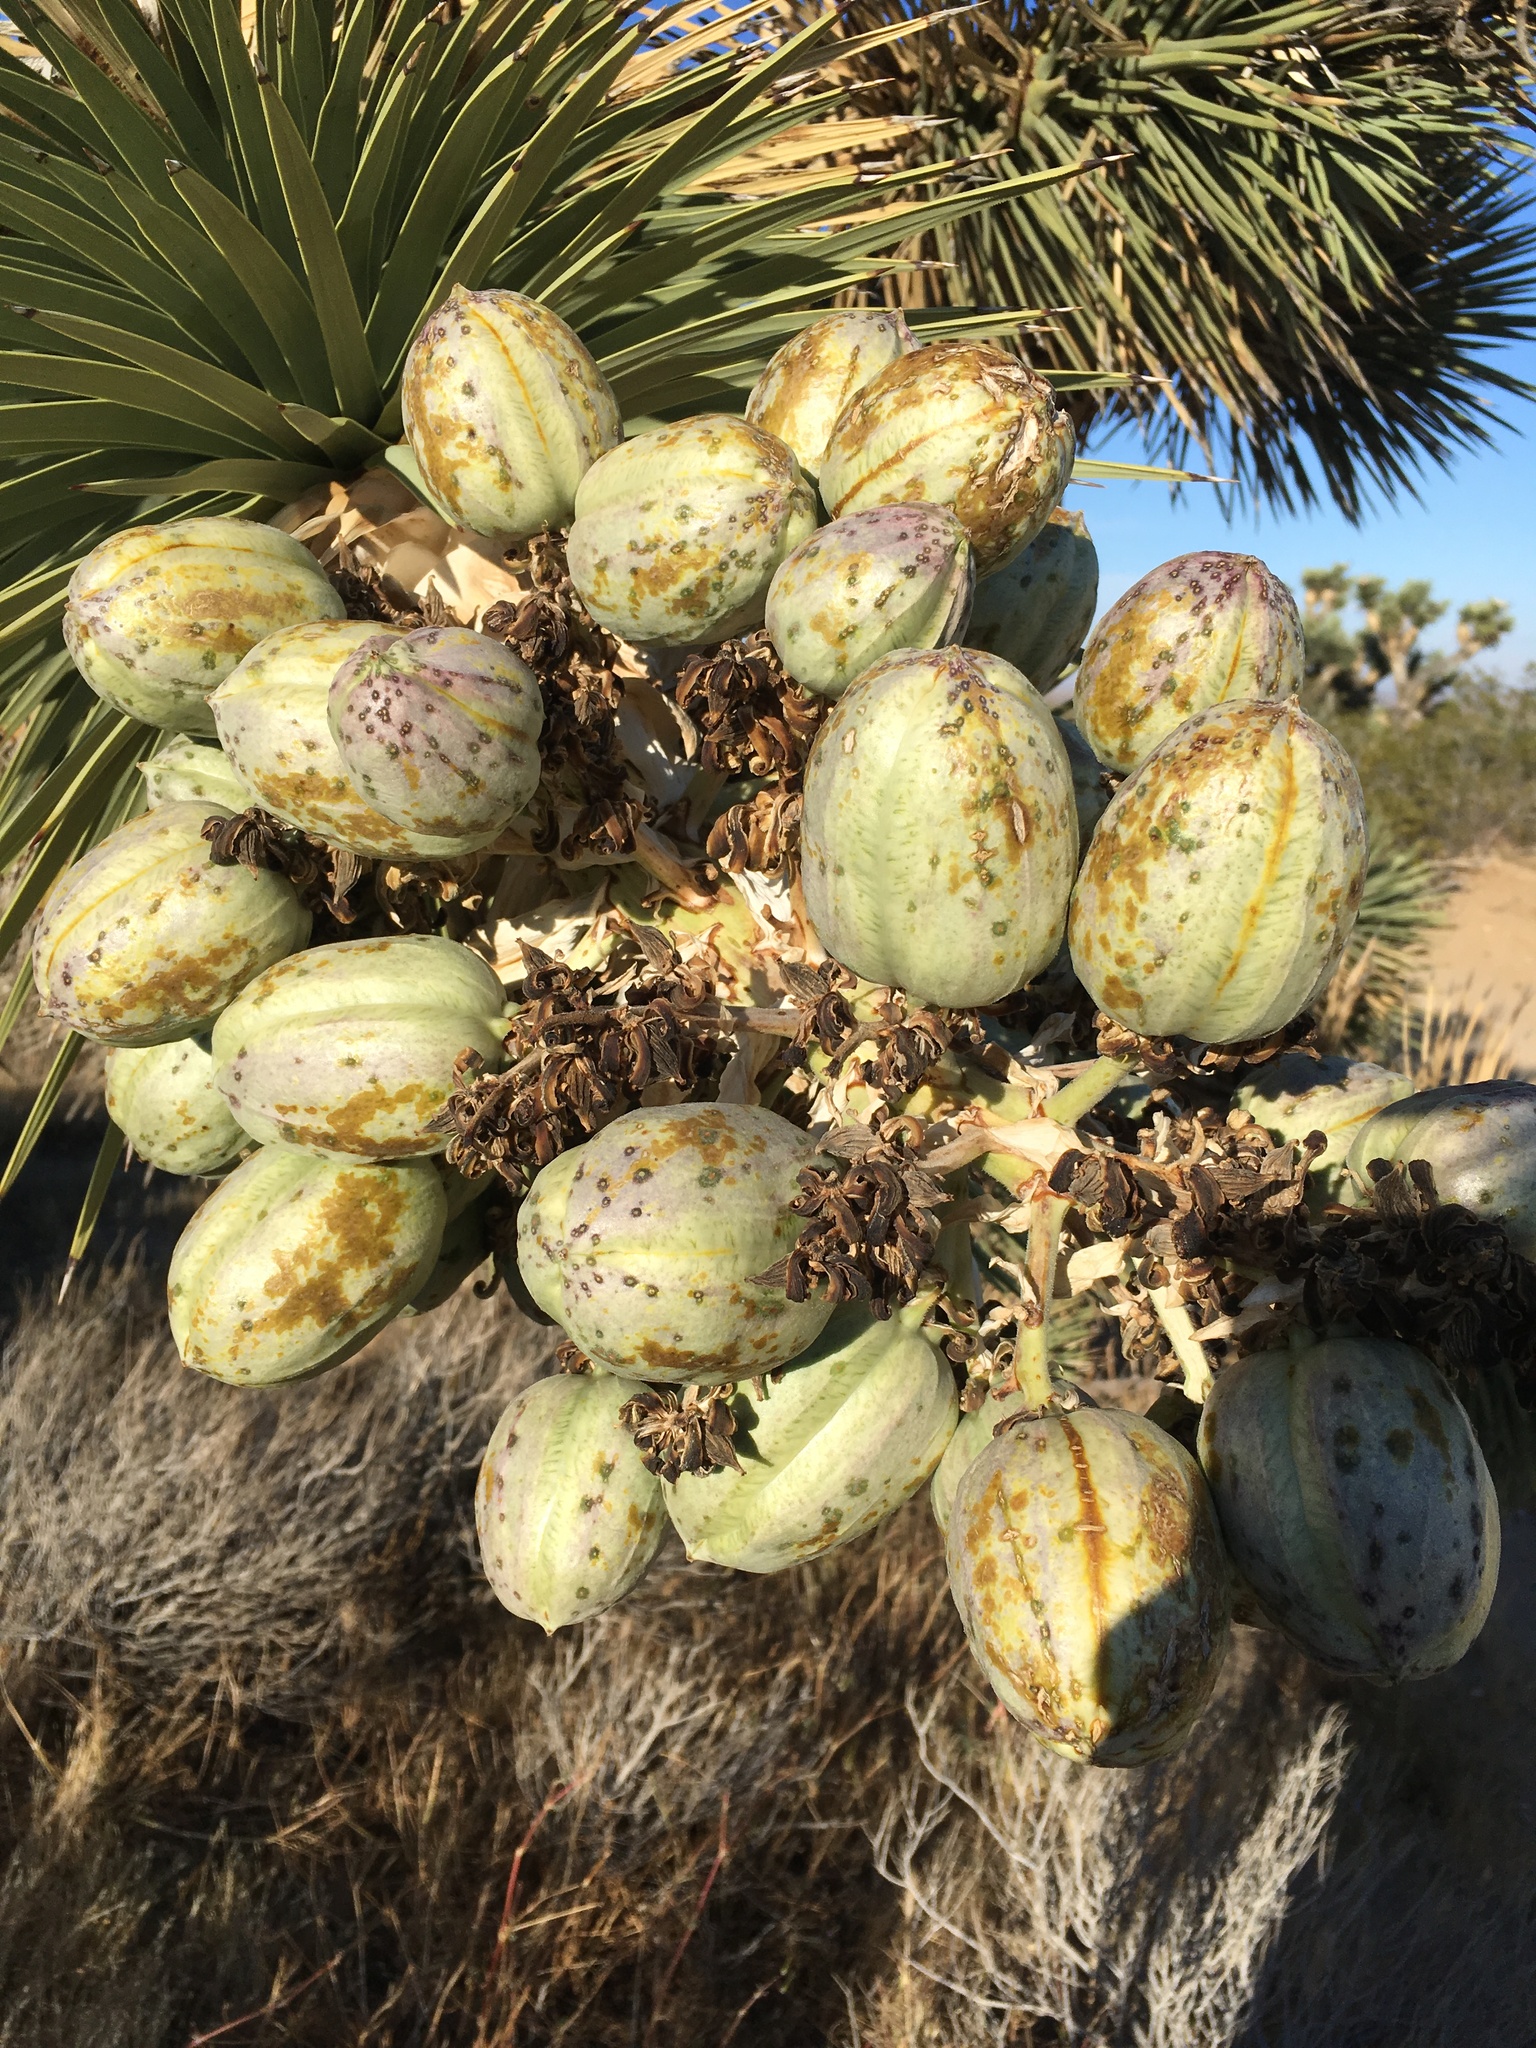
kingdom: Plantae
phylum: Tracheophyta
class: Liliopsida
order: Asparagales
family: Asparagaceae
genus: Yucca
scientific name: Yucca brevifolia
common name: Joshua tree
